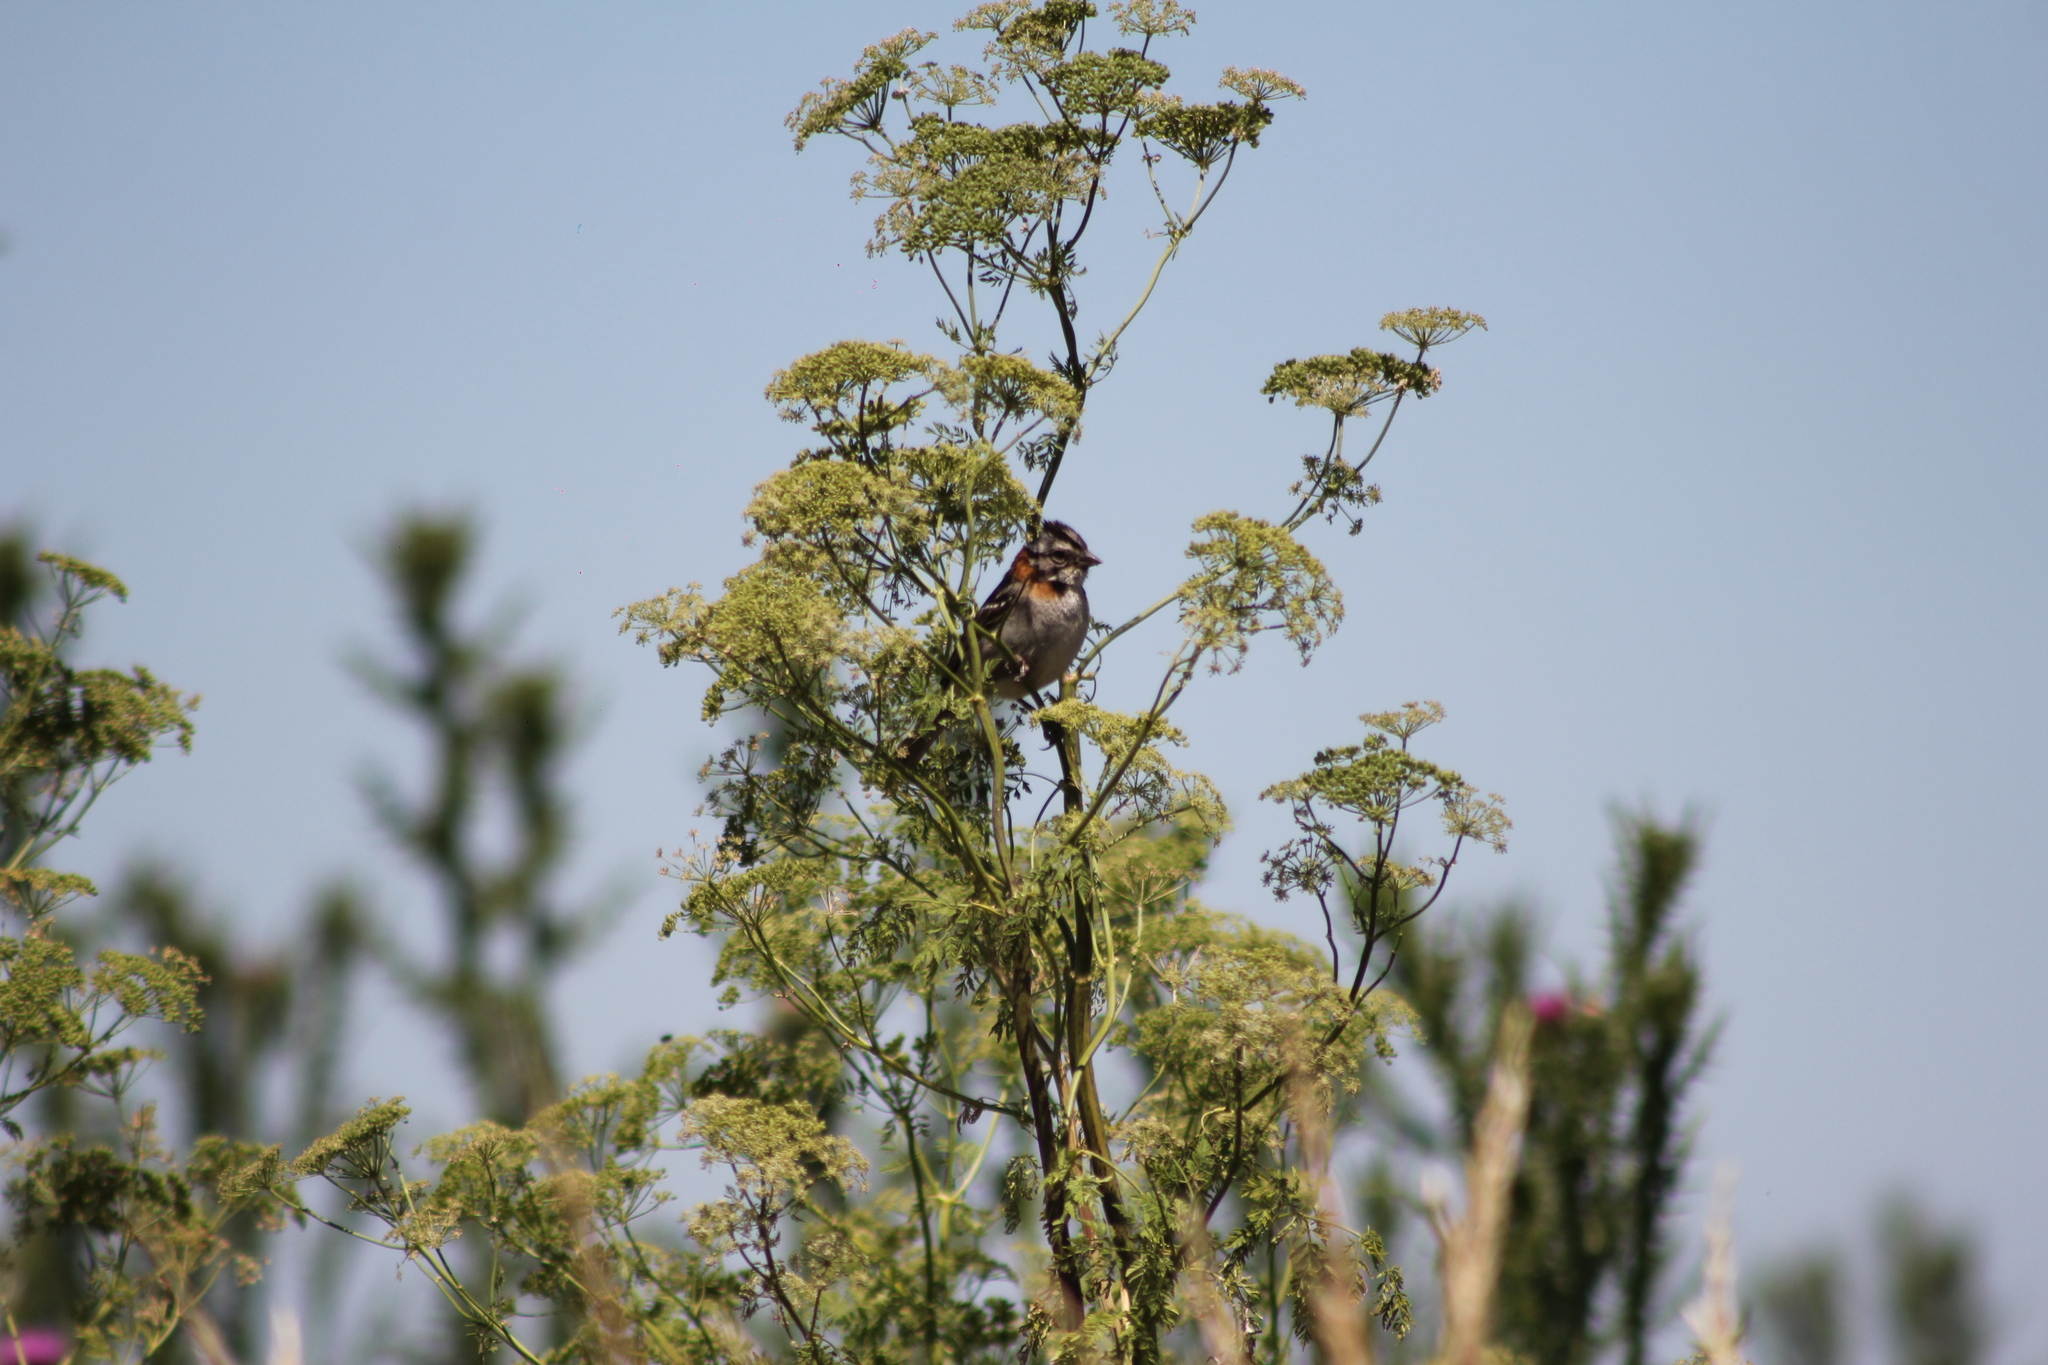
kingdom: Animalia
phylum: Chordata
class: Aves
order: Passeriformes
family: Passerellidae
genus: Zonotrichia
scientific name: Zonotrichia capensis
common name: Rufous-collared sparrow
